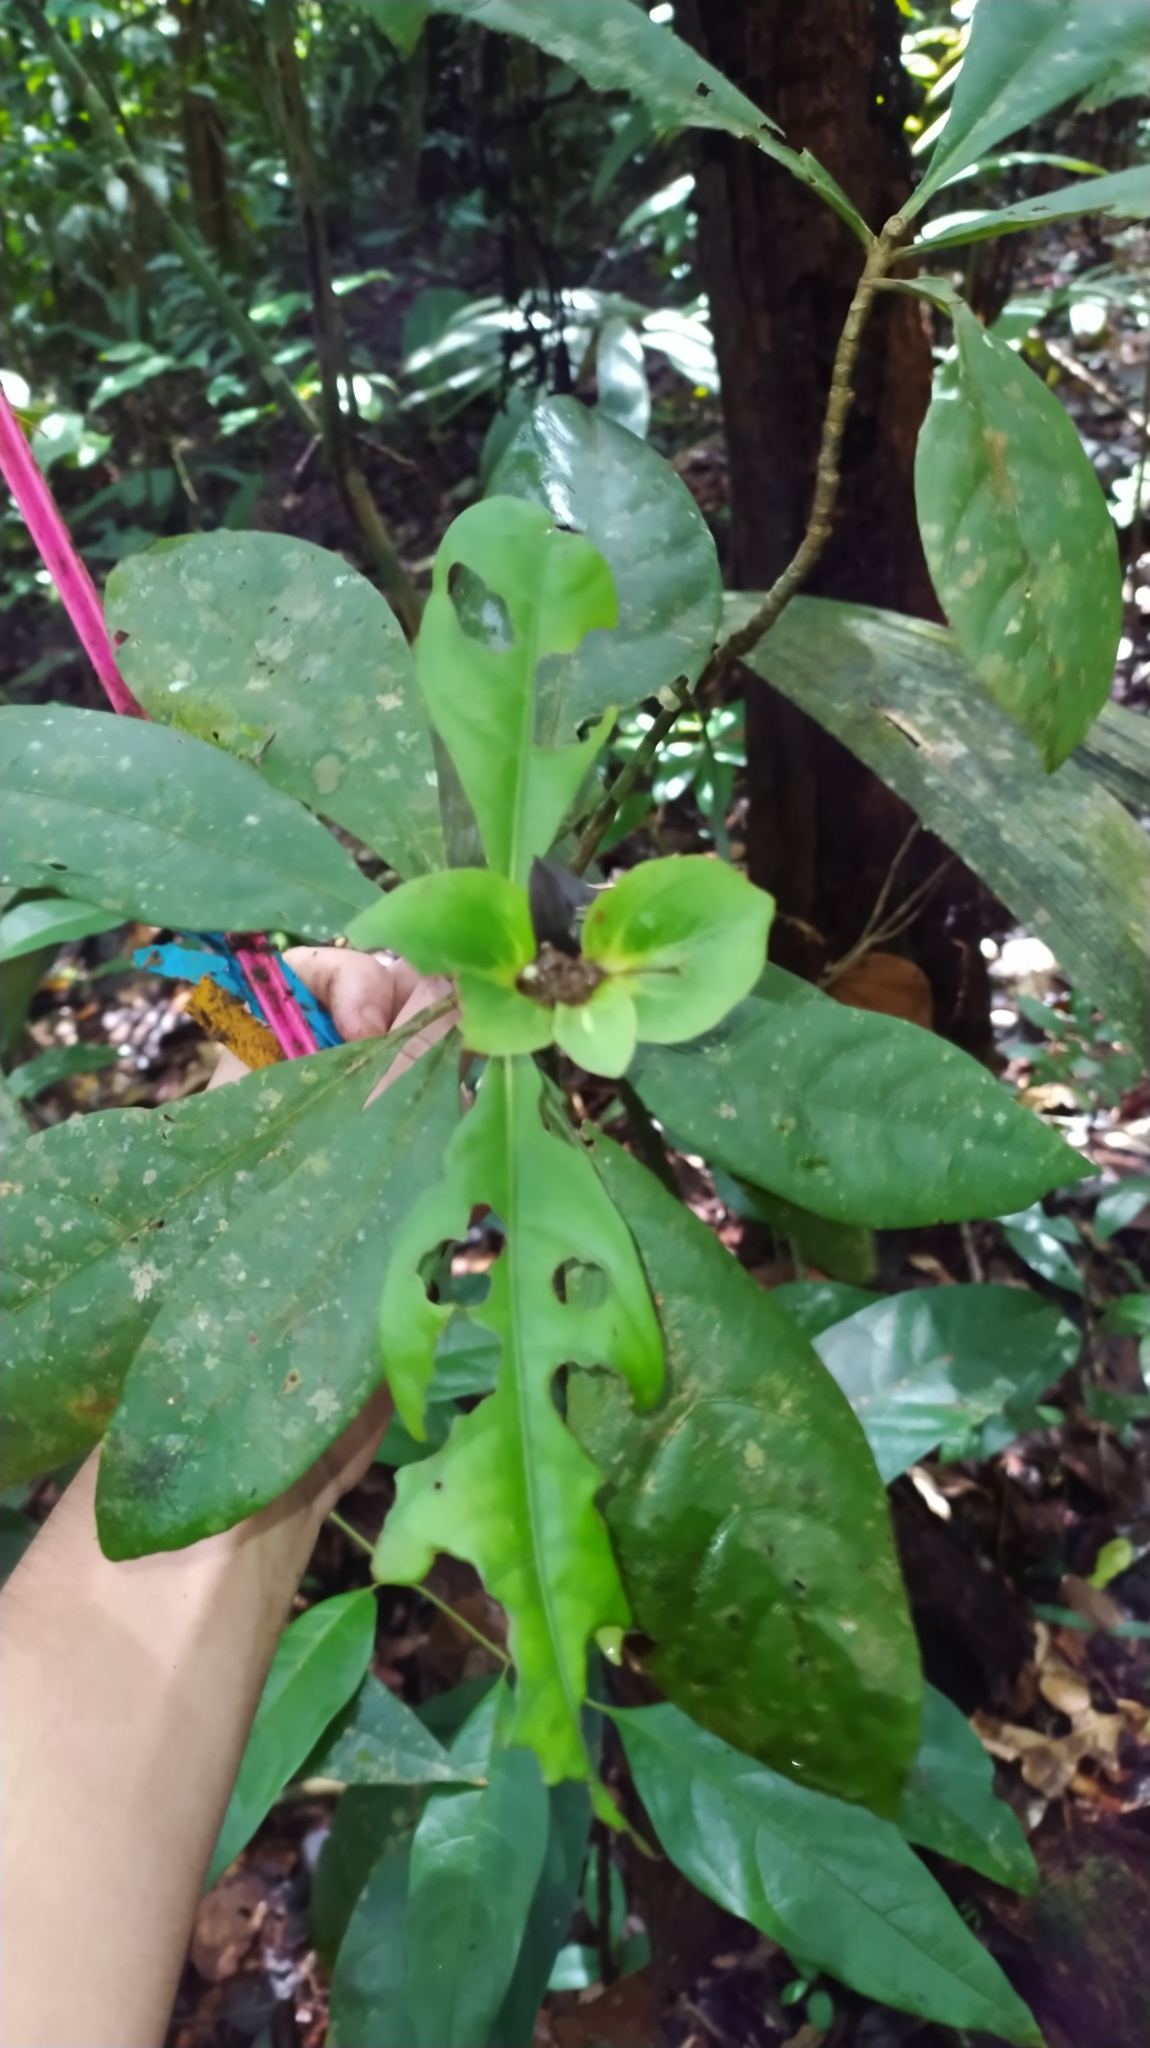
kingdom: Plantae
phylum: Tracheophyta
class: Magnoliopsida
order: Gentianales
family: Rubiaceae
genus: Carapichea
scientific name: Carapichea guianensis
